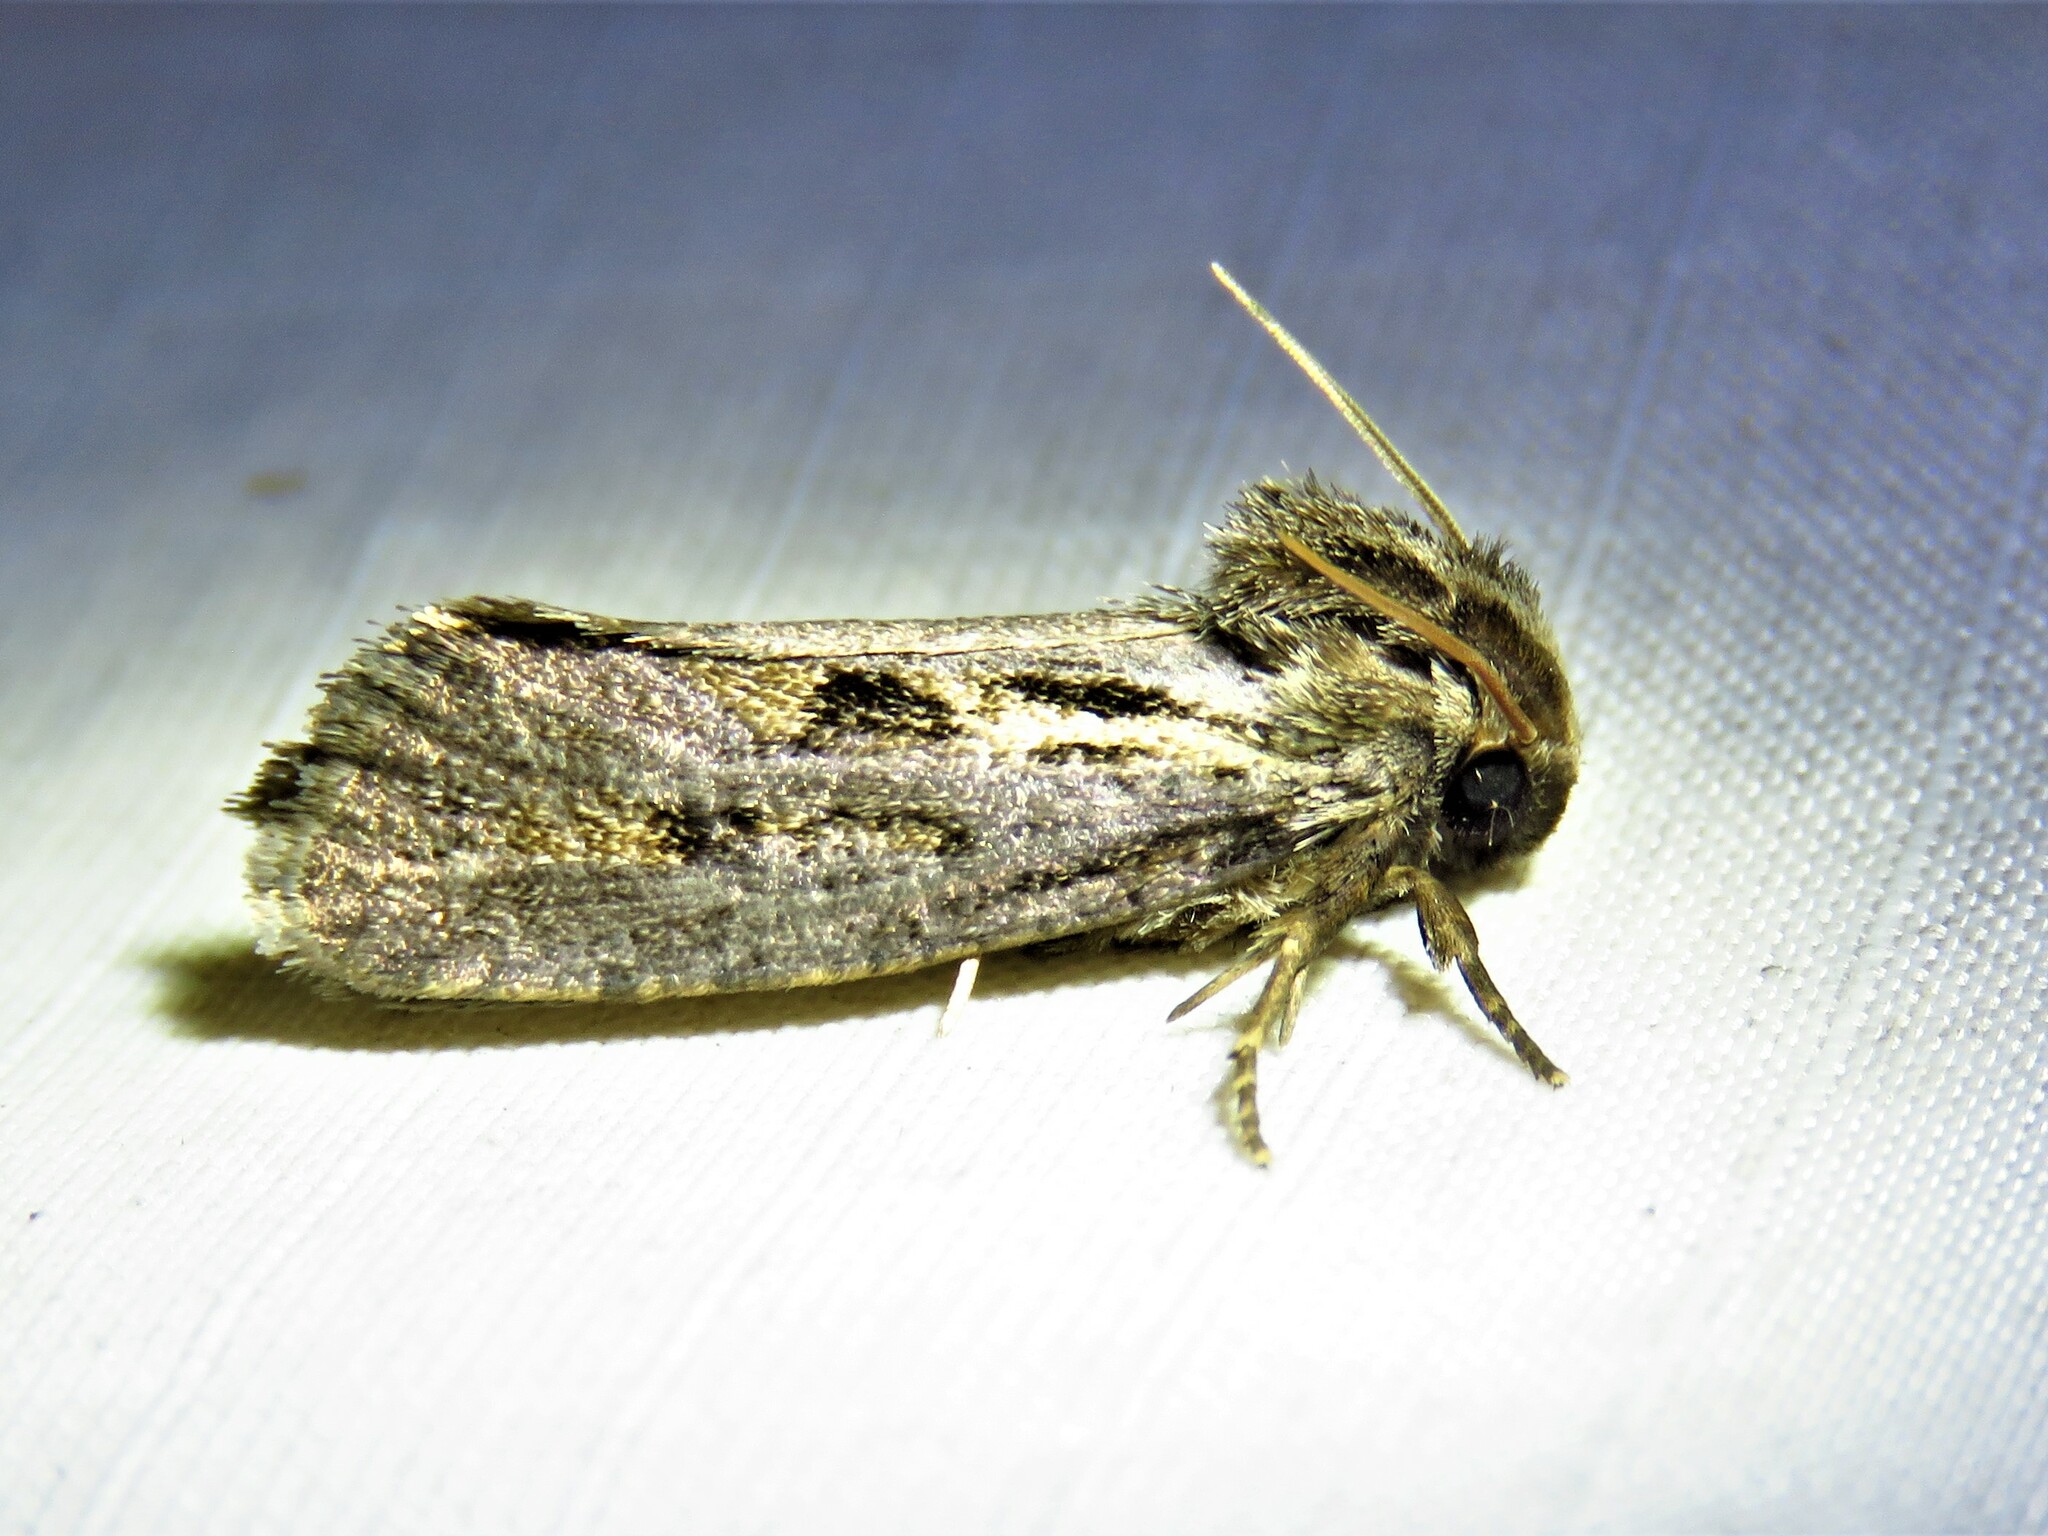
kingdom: Animalia
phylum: Arthropoda
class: Insecta
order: Lepidoptera
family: Tineidae
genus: Acrolophus
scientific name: Acrolophus popeanella
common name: Clemens' grass tubeworm moth
